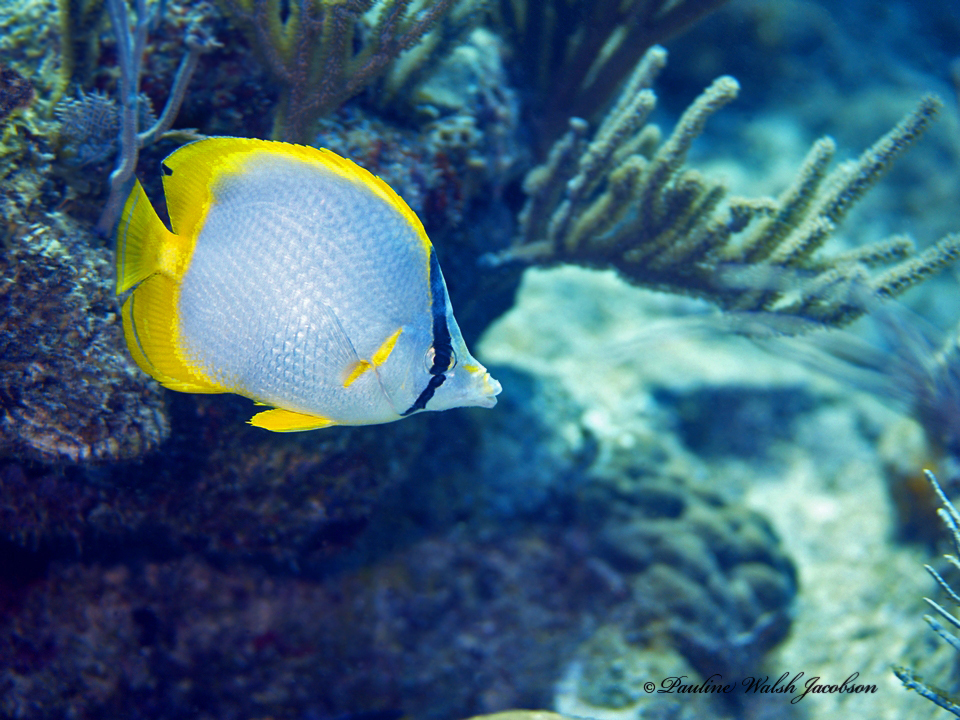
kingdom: Animalia
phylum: Chordata
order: Perciformes
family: Chaetodontidae
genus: Chaetodon
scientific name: Chaetodon ocellatus
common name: Spotfin butterflyfish
